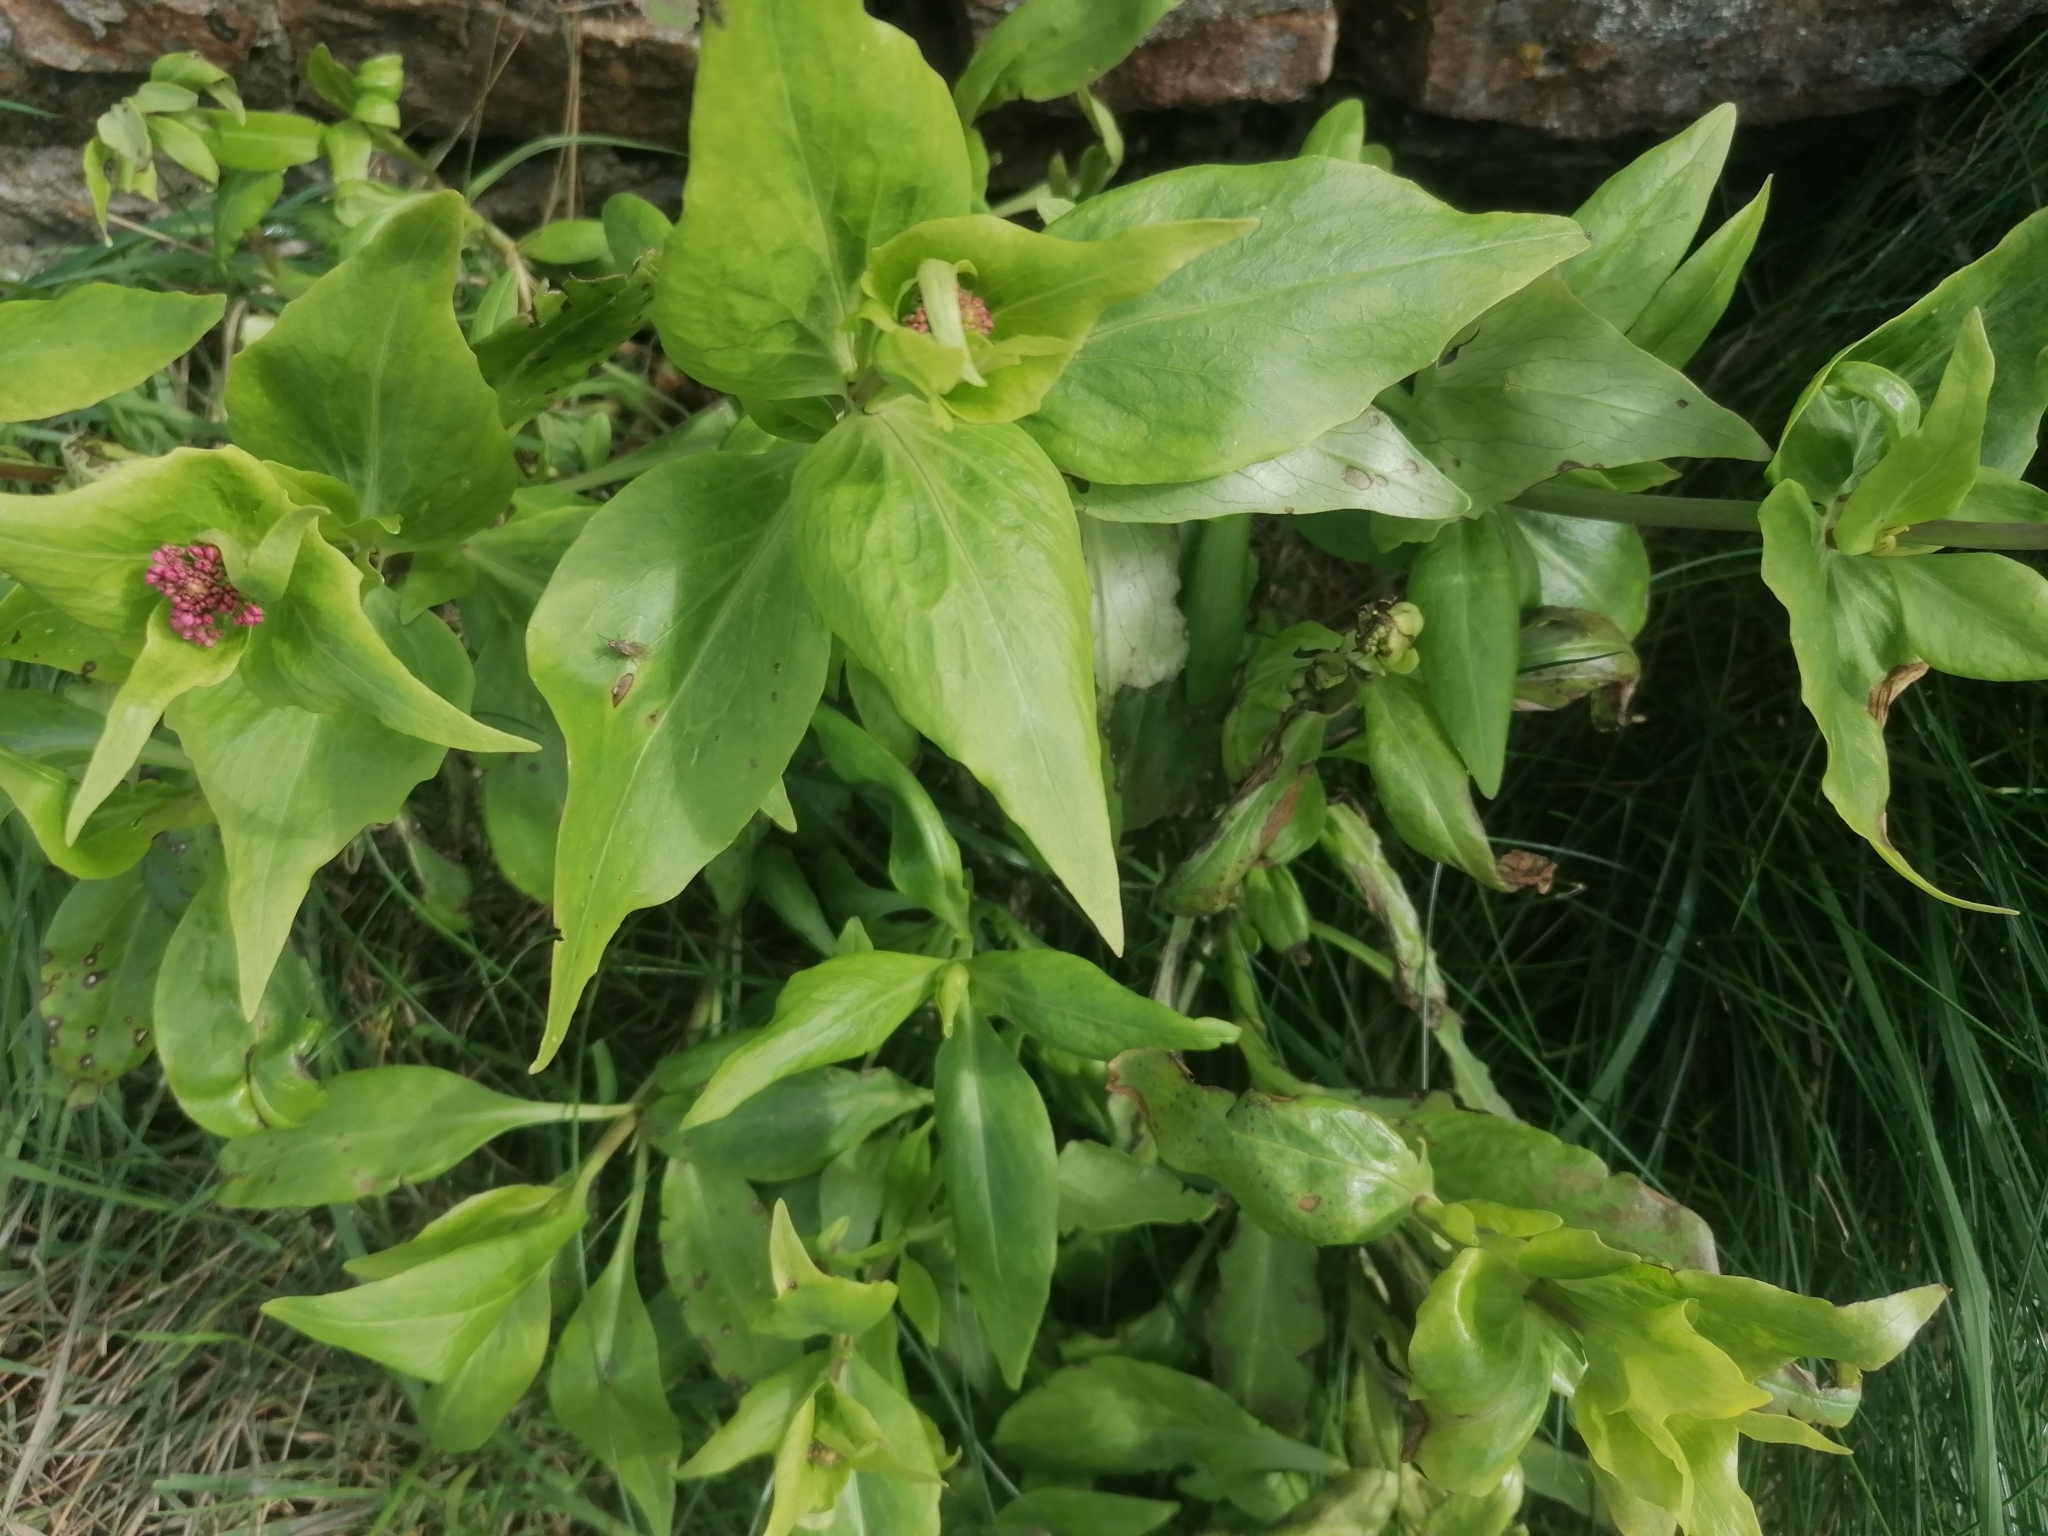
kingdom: Plantae
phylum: Tracheophyta
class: Magnoliopsida
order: Dipsacales
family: Caprifoliaceae
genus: Centranthus
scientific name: Centranthus ruber
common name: Red valerian
